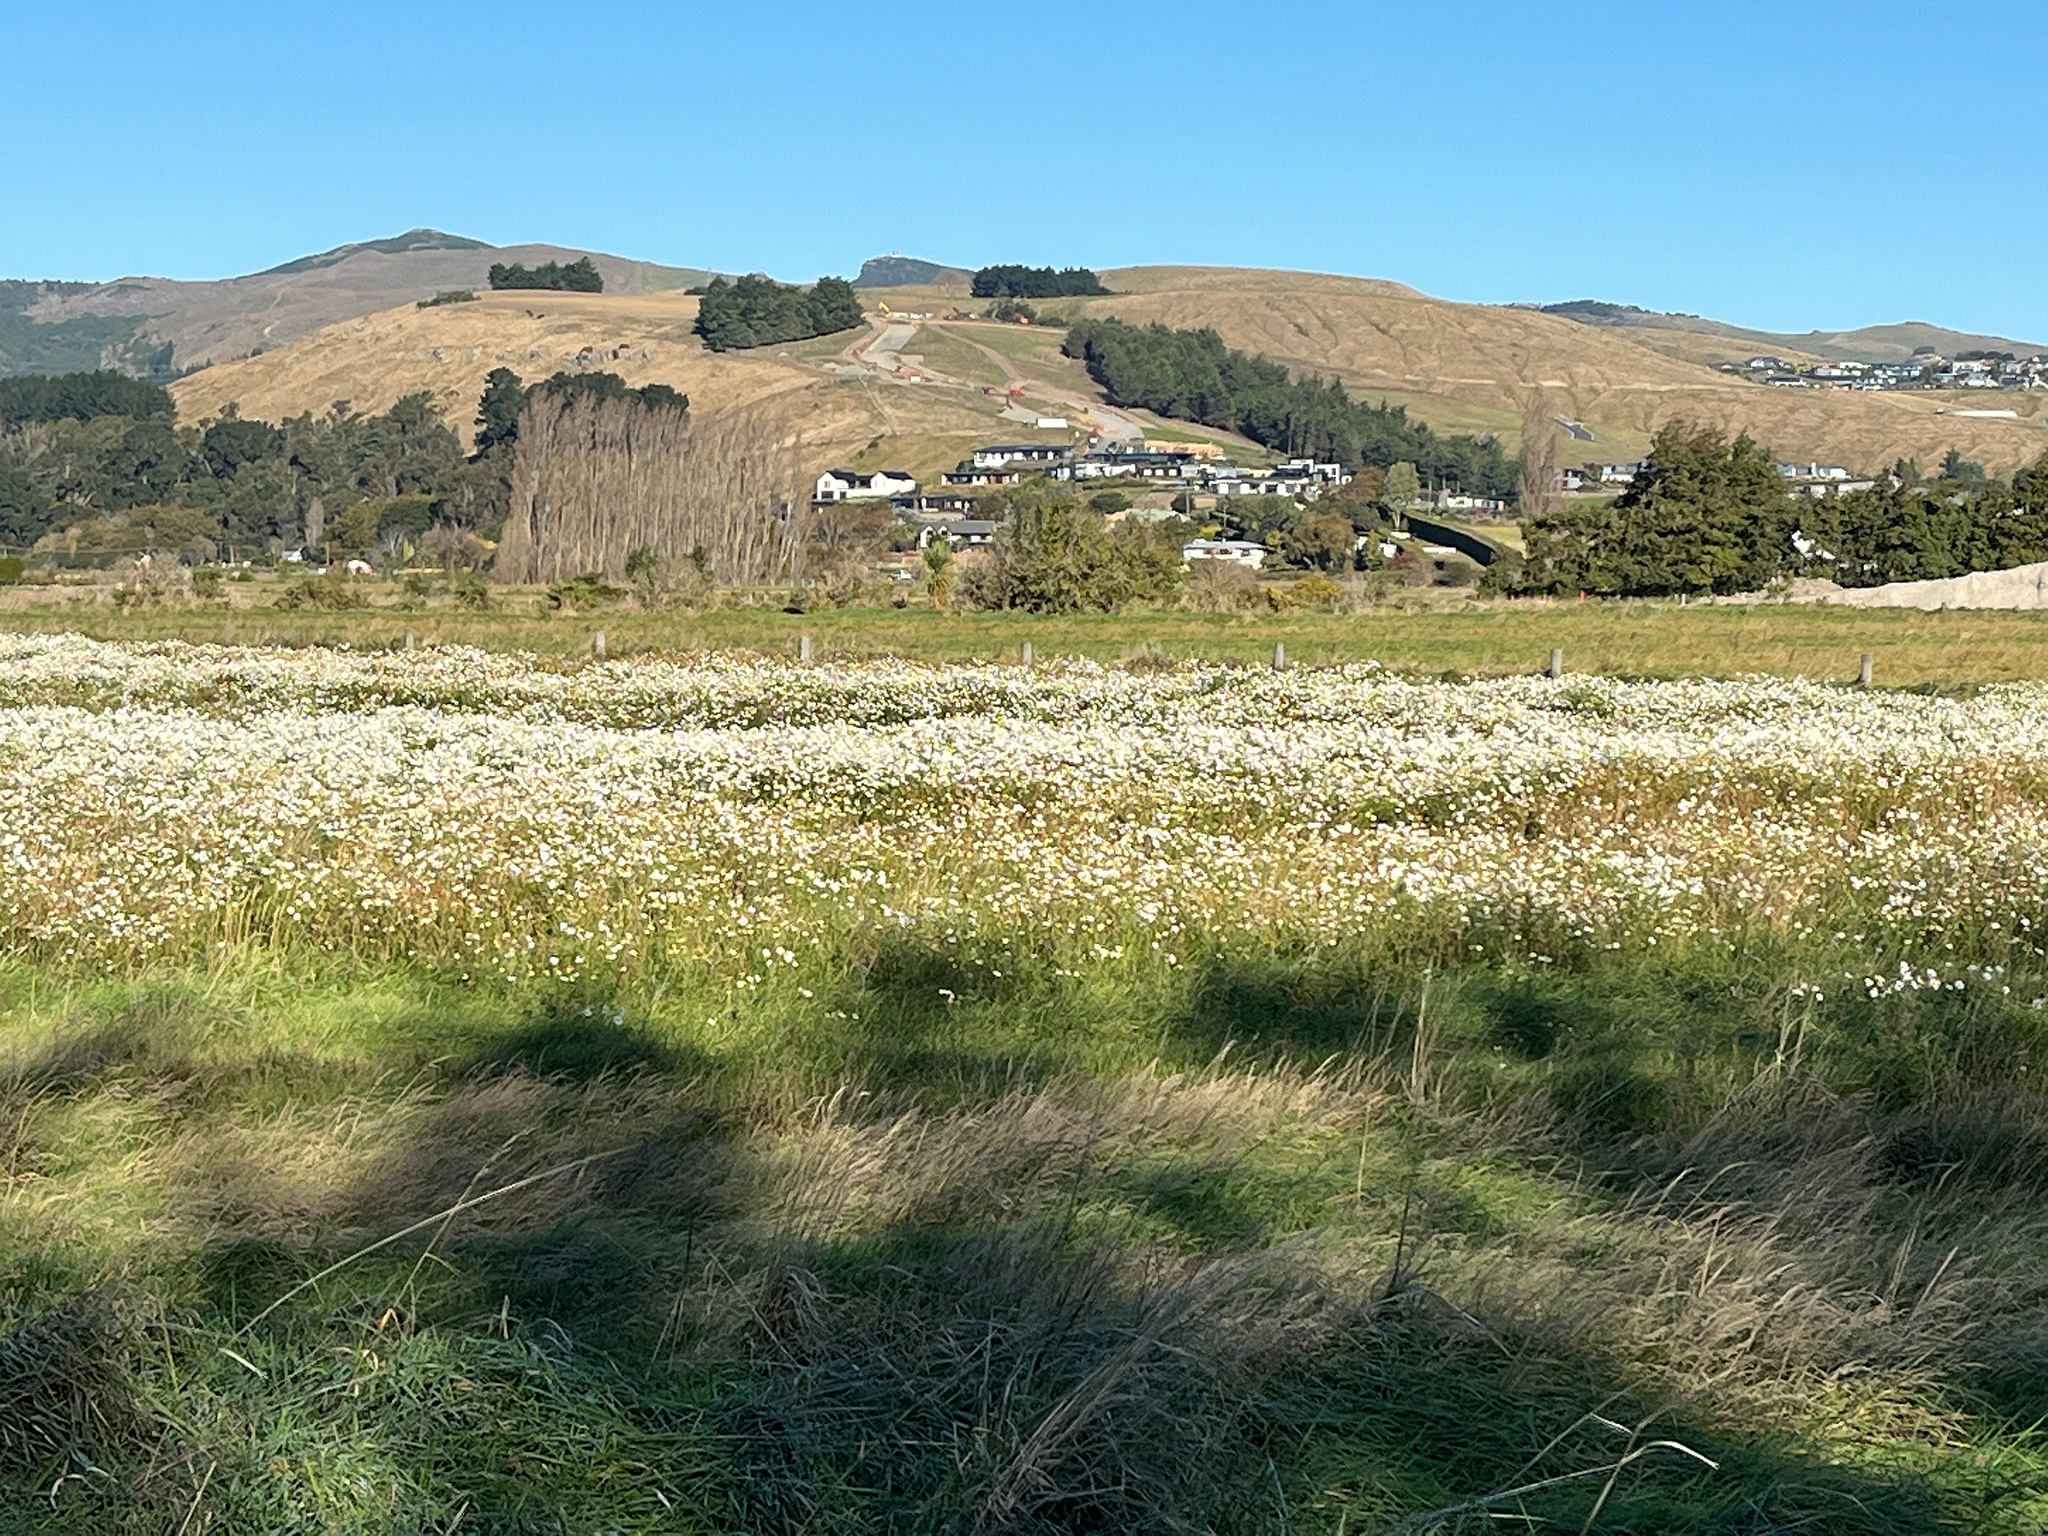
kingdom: Plantae
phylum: Tracheophyta
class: Magnoliopsida
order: Asterales
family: Asteraceae
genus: Tripleurospermum
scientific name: Tripleurospermum inodorum
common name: Scentless mayweed
